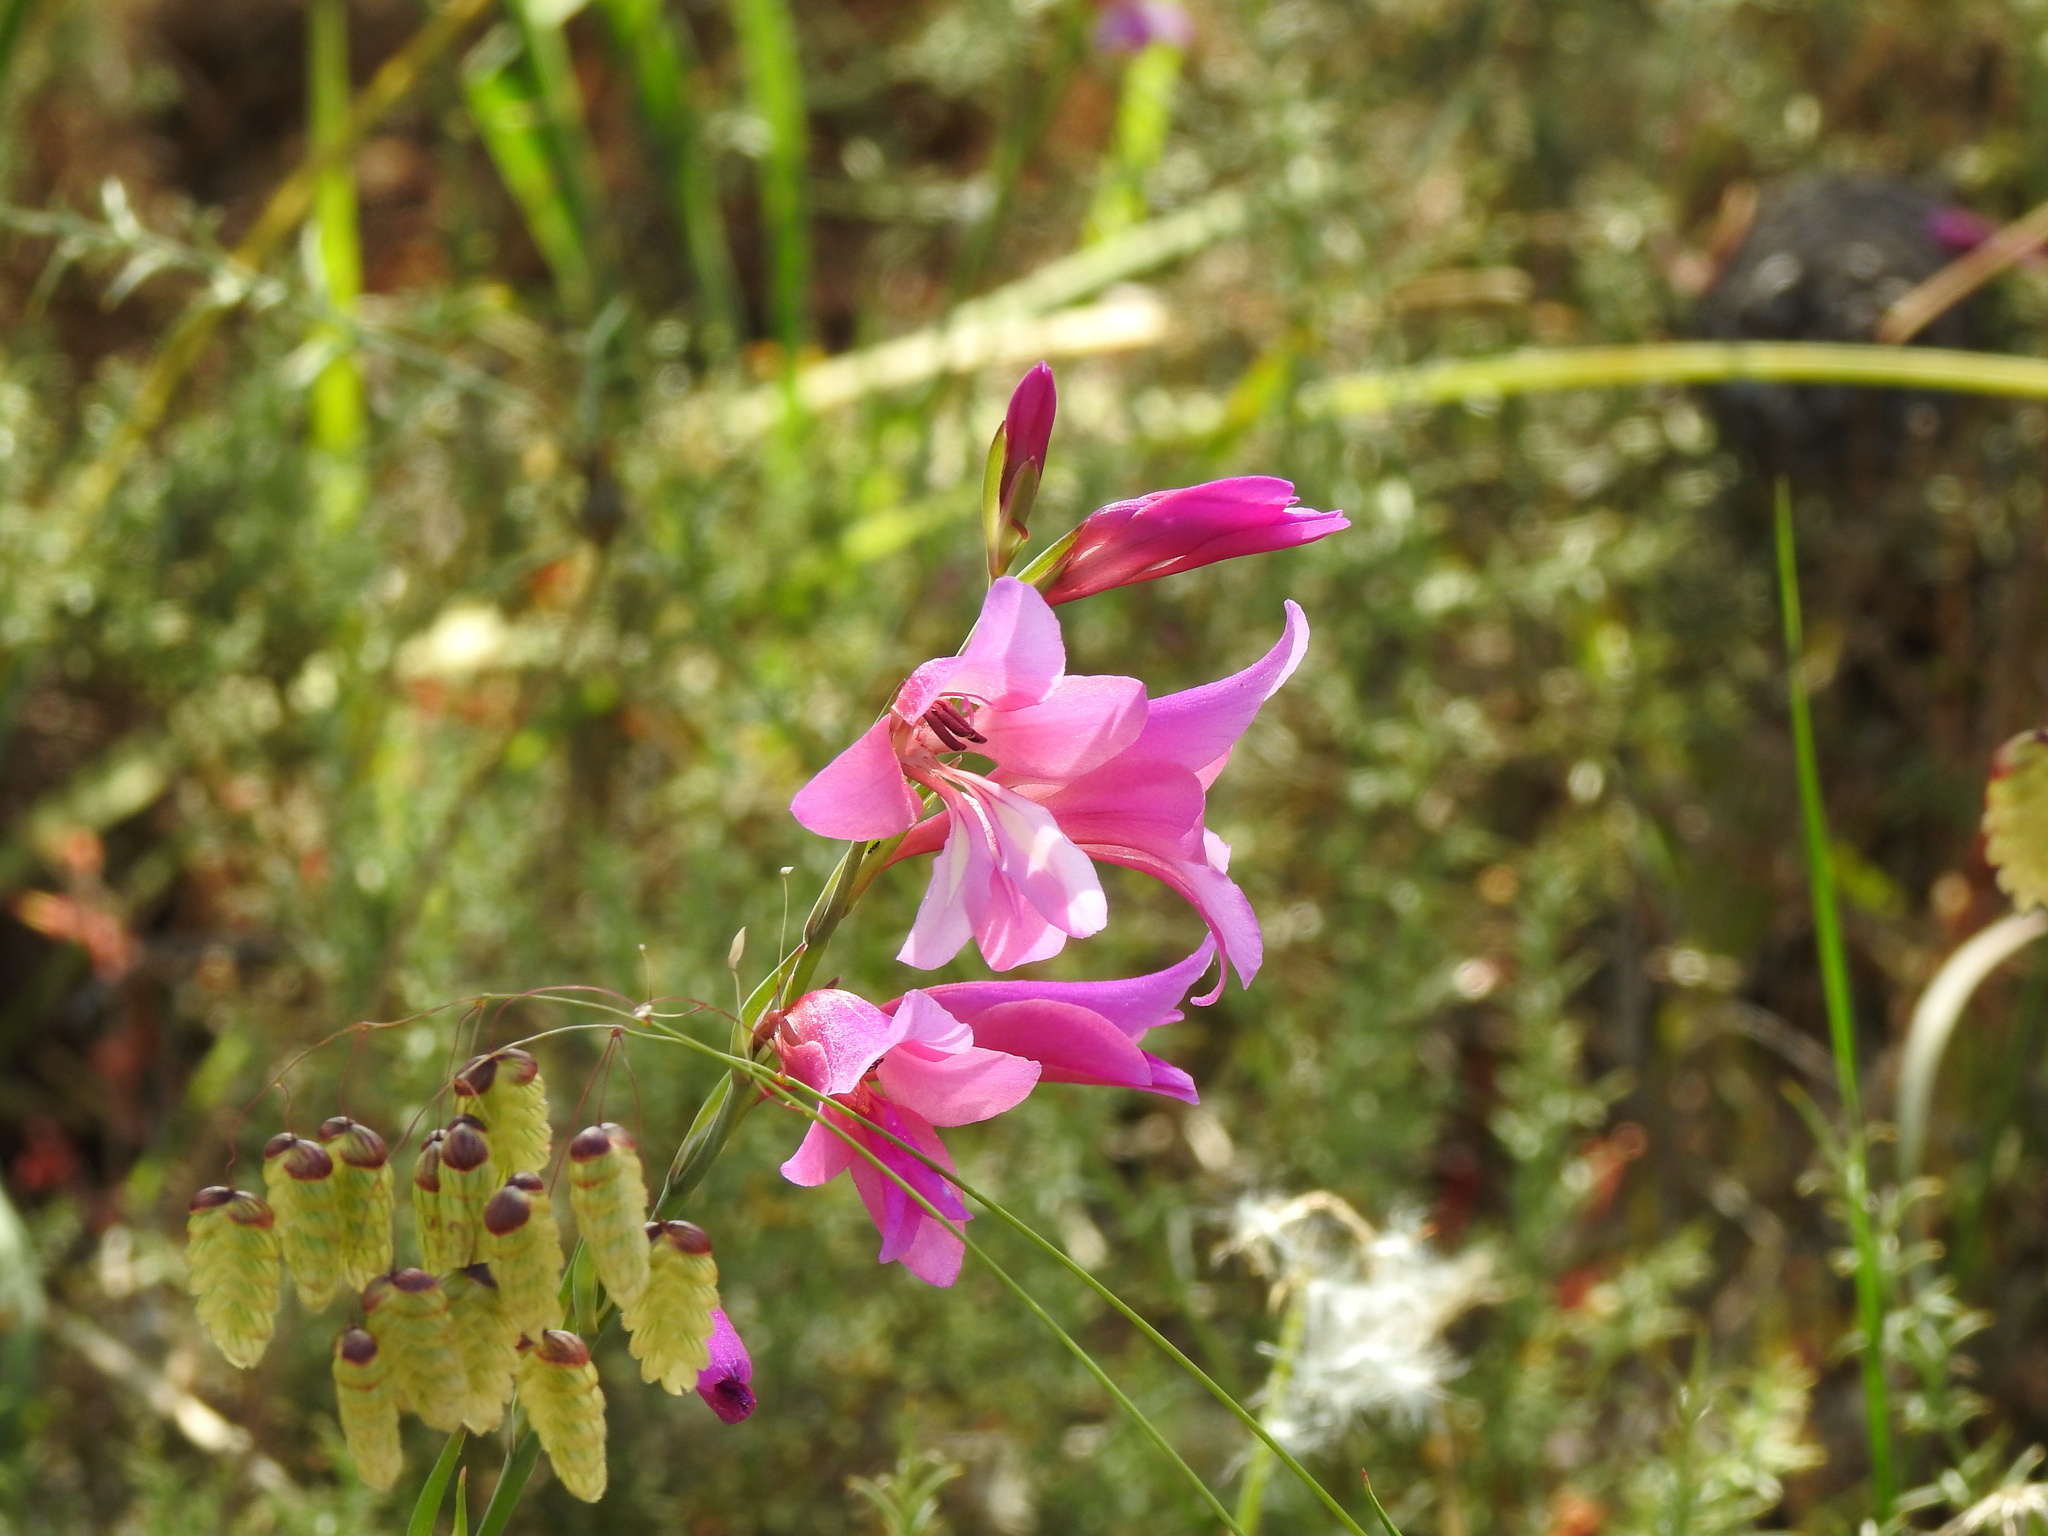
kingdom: Plantae
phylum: Tracheophyta
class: Liliopsida
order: Asparagales
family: Iridaceae
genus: Gladiolus
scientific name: Gladiolus illyricus
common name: Wild gladiolus
